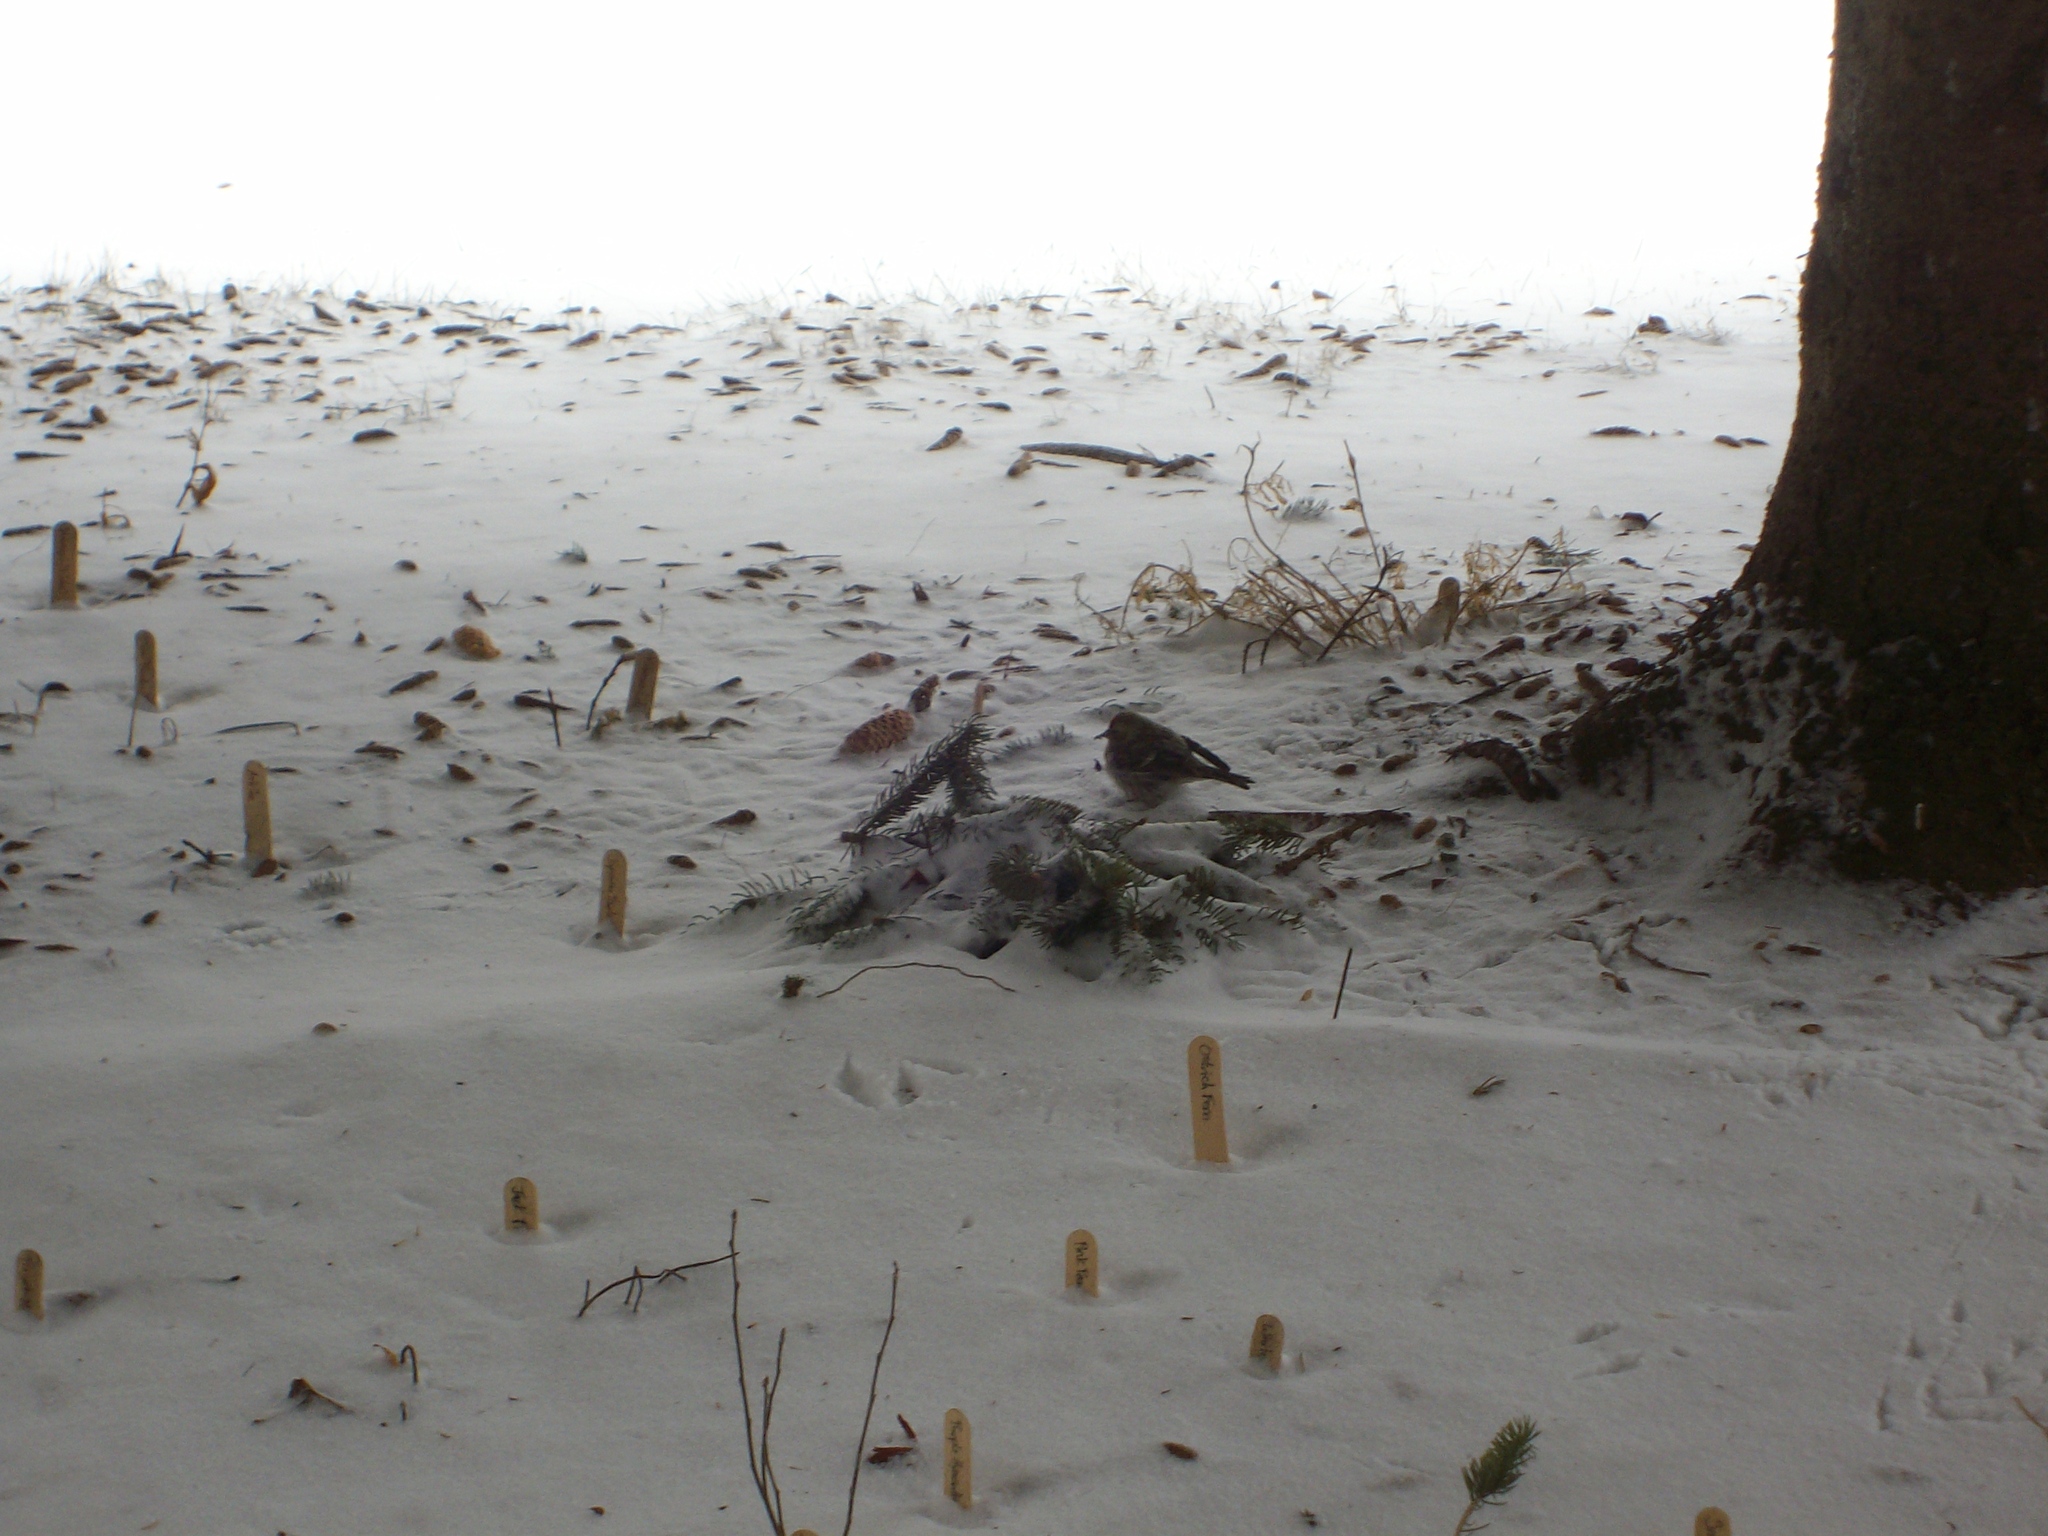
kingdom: Animalia
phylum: Chordata
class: Aves
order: Passeriformes
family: Fringillidae
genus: Acanthis
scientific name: Acanthis flammea
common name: Common redpoll
